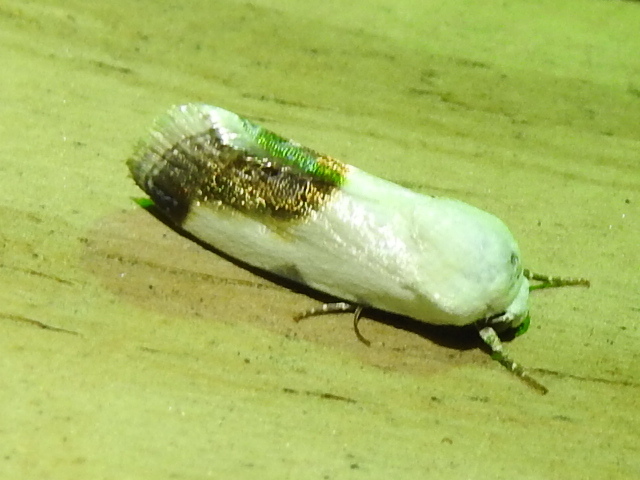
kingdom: Animalia
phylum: Arthropoda
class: Insecta
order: Lepidoptera
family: Noctuidae
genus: Acontia
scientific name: Acontia cretata
